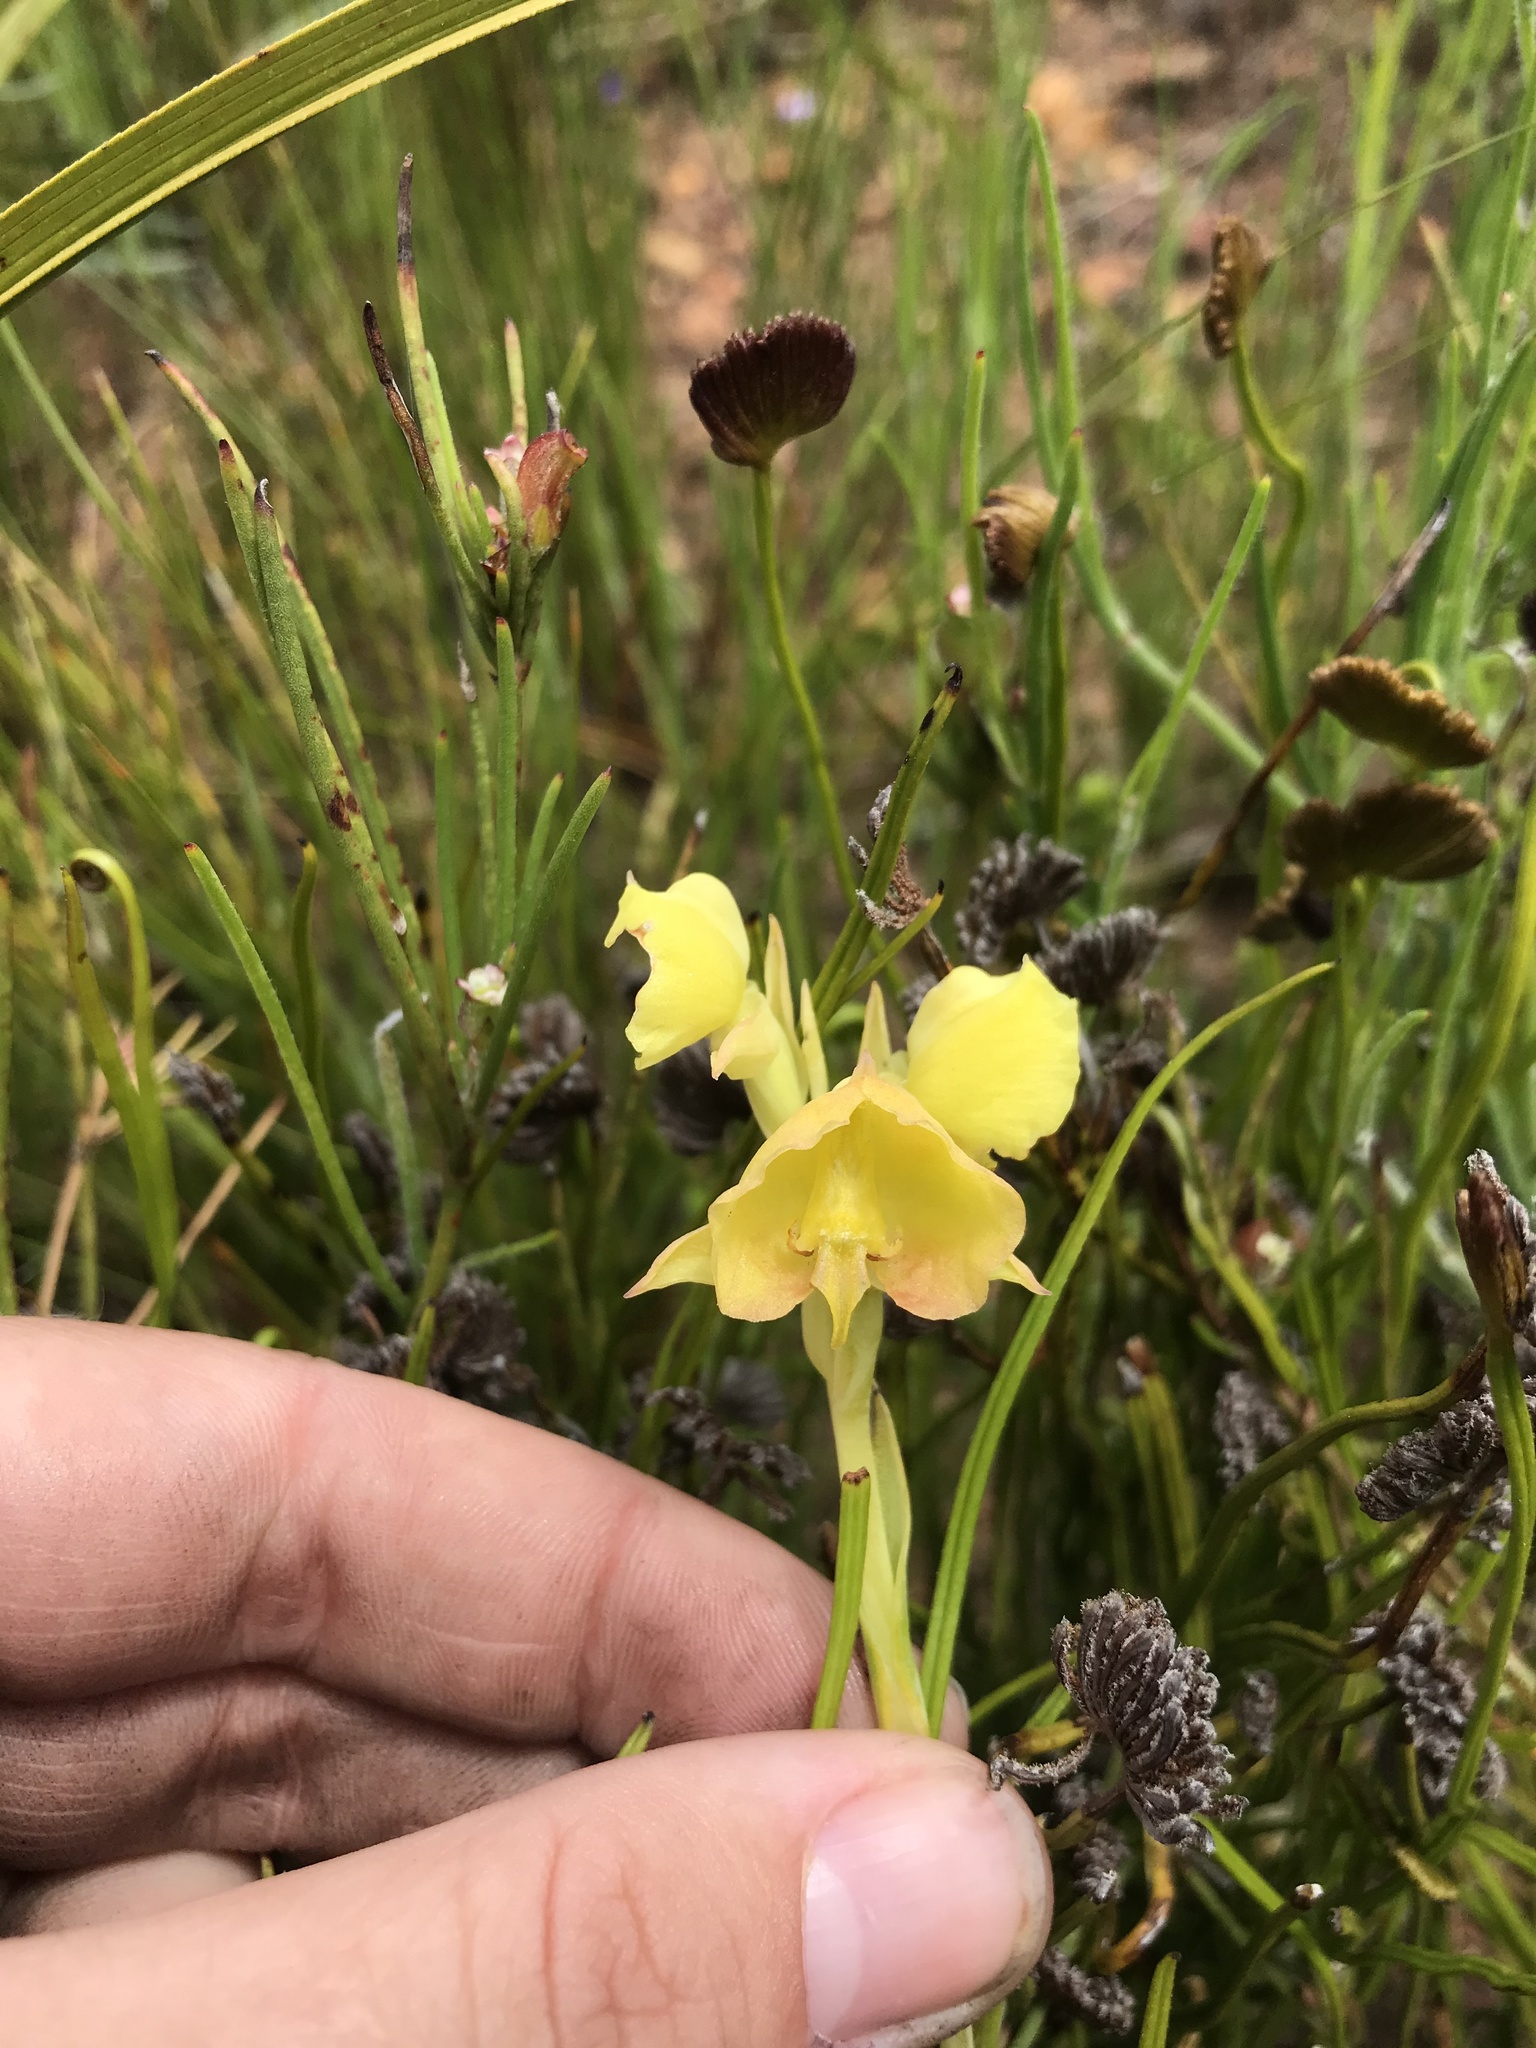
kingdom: Plantae
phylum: Tracheophyta
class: Liliopsida
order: Asparagales
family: Orchidaceae
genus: Pterygodium
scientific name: Pterygodium acutifolium
